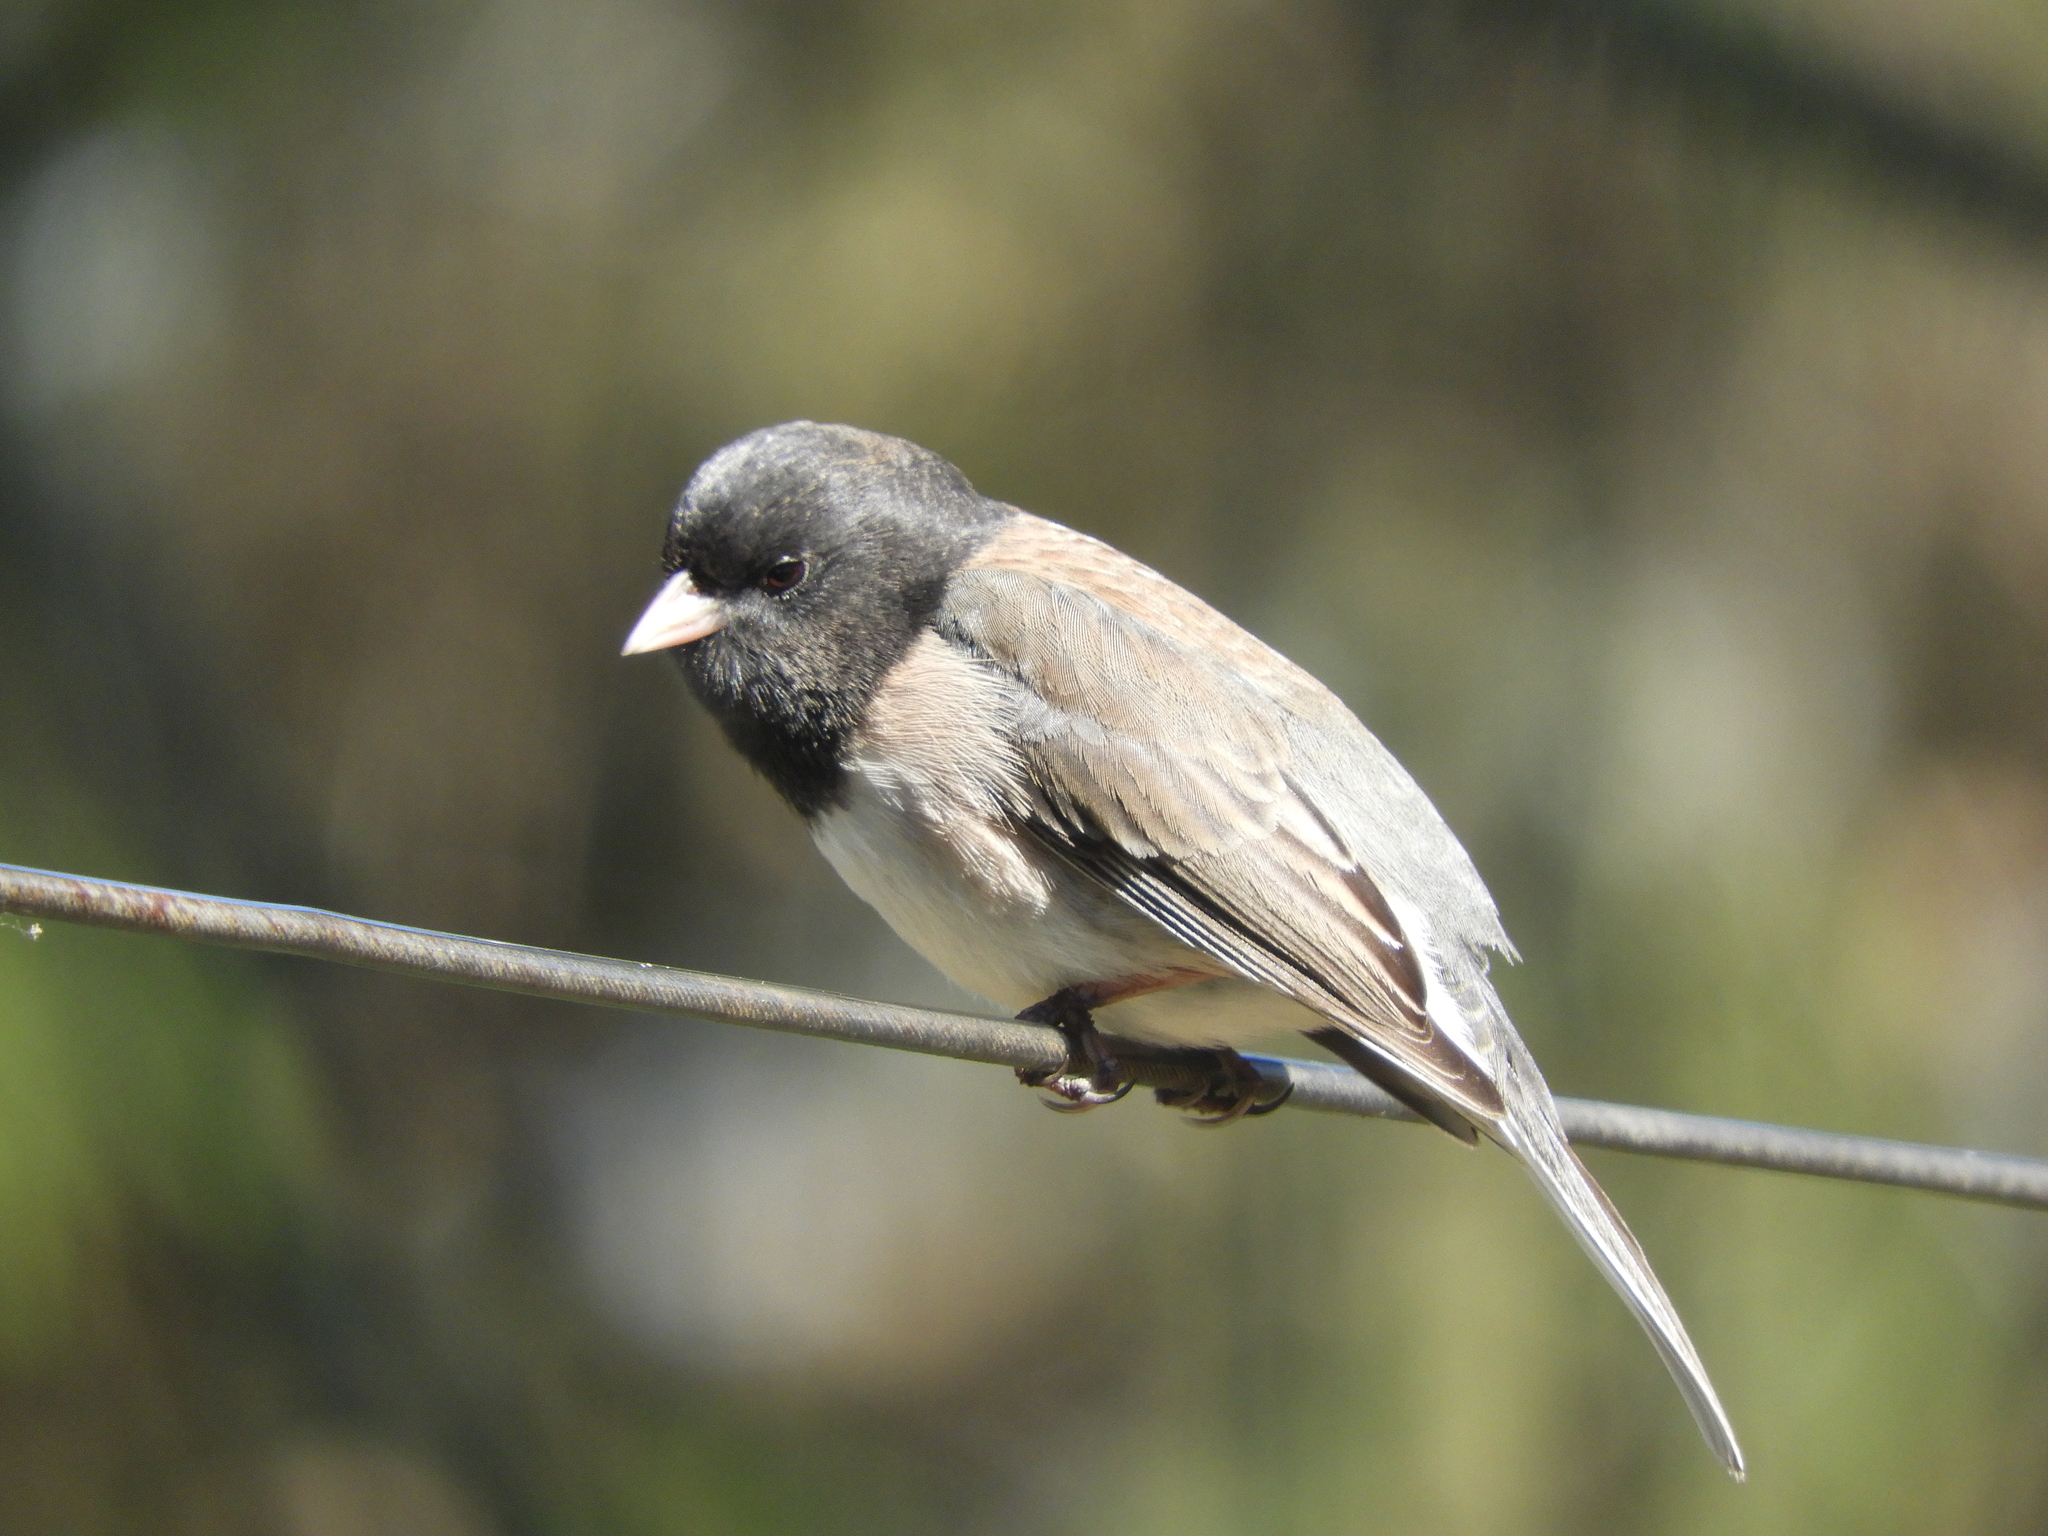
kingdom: Animalia
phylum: Chordata
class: Aves
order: Passeriformes
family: Passerellidae
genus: Junco
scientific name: Junco hyemalis
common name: Dark-eyed junco
